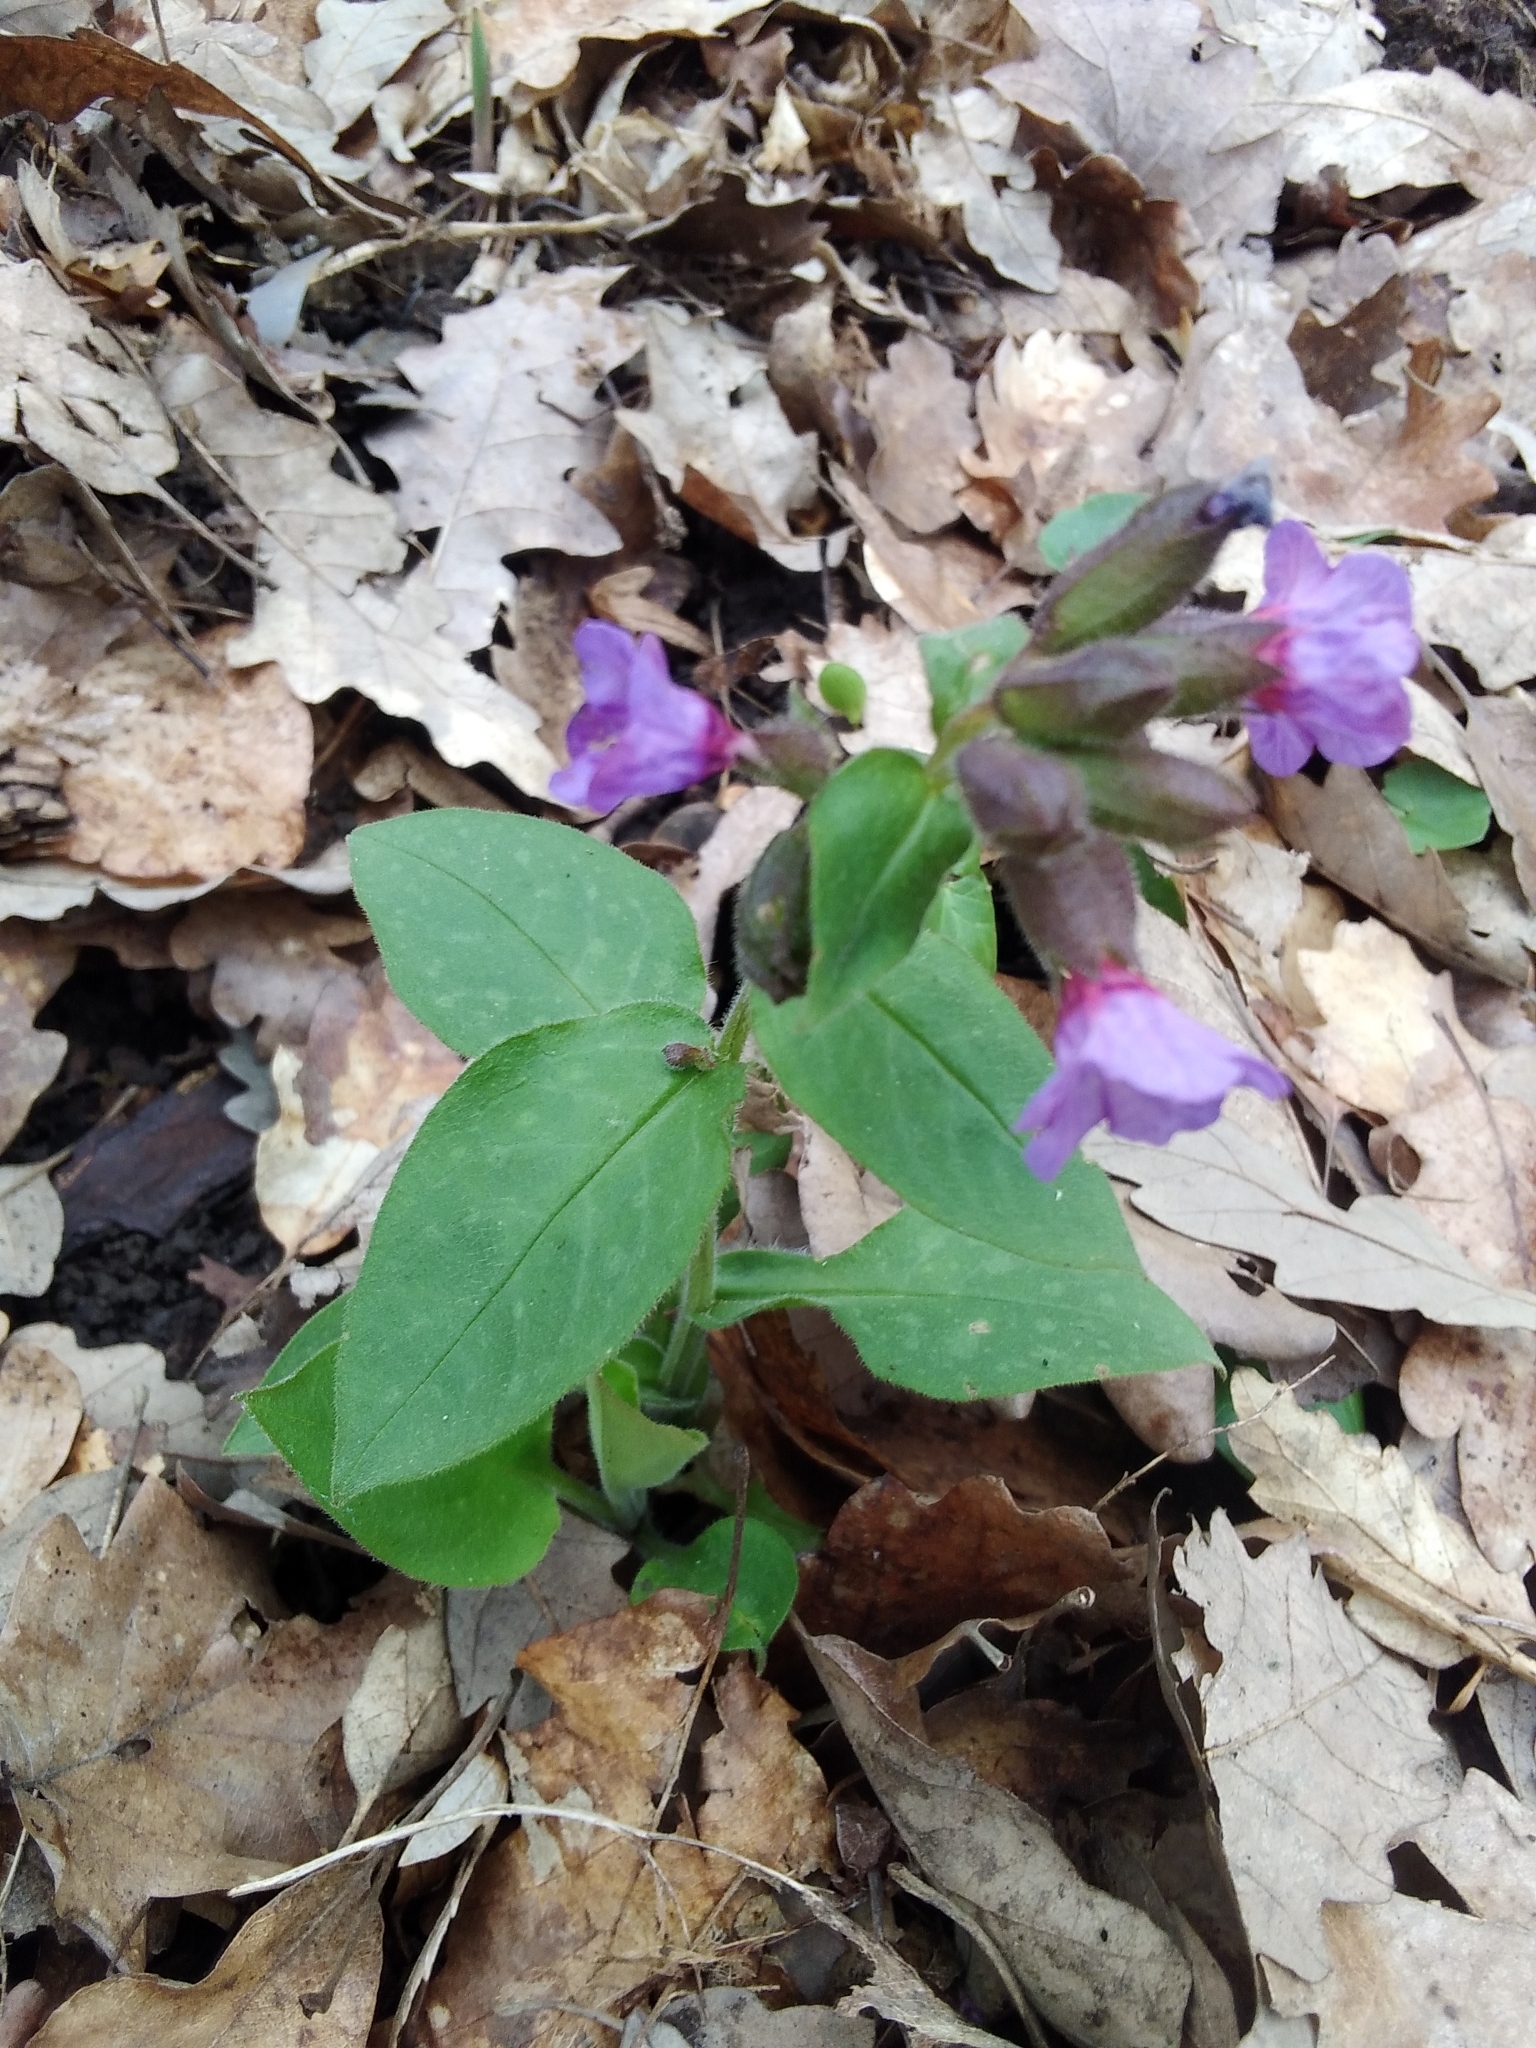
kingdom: Plantae
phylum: Tracheophyta
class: Magnoliopsida
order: Boraginales
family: Boraginaceae
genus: Pulmonaria
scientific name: Pulmonaria officinalis
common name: Lungwort
